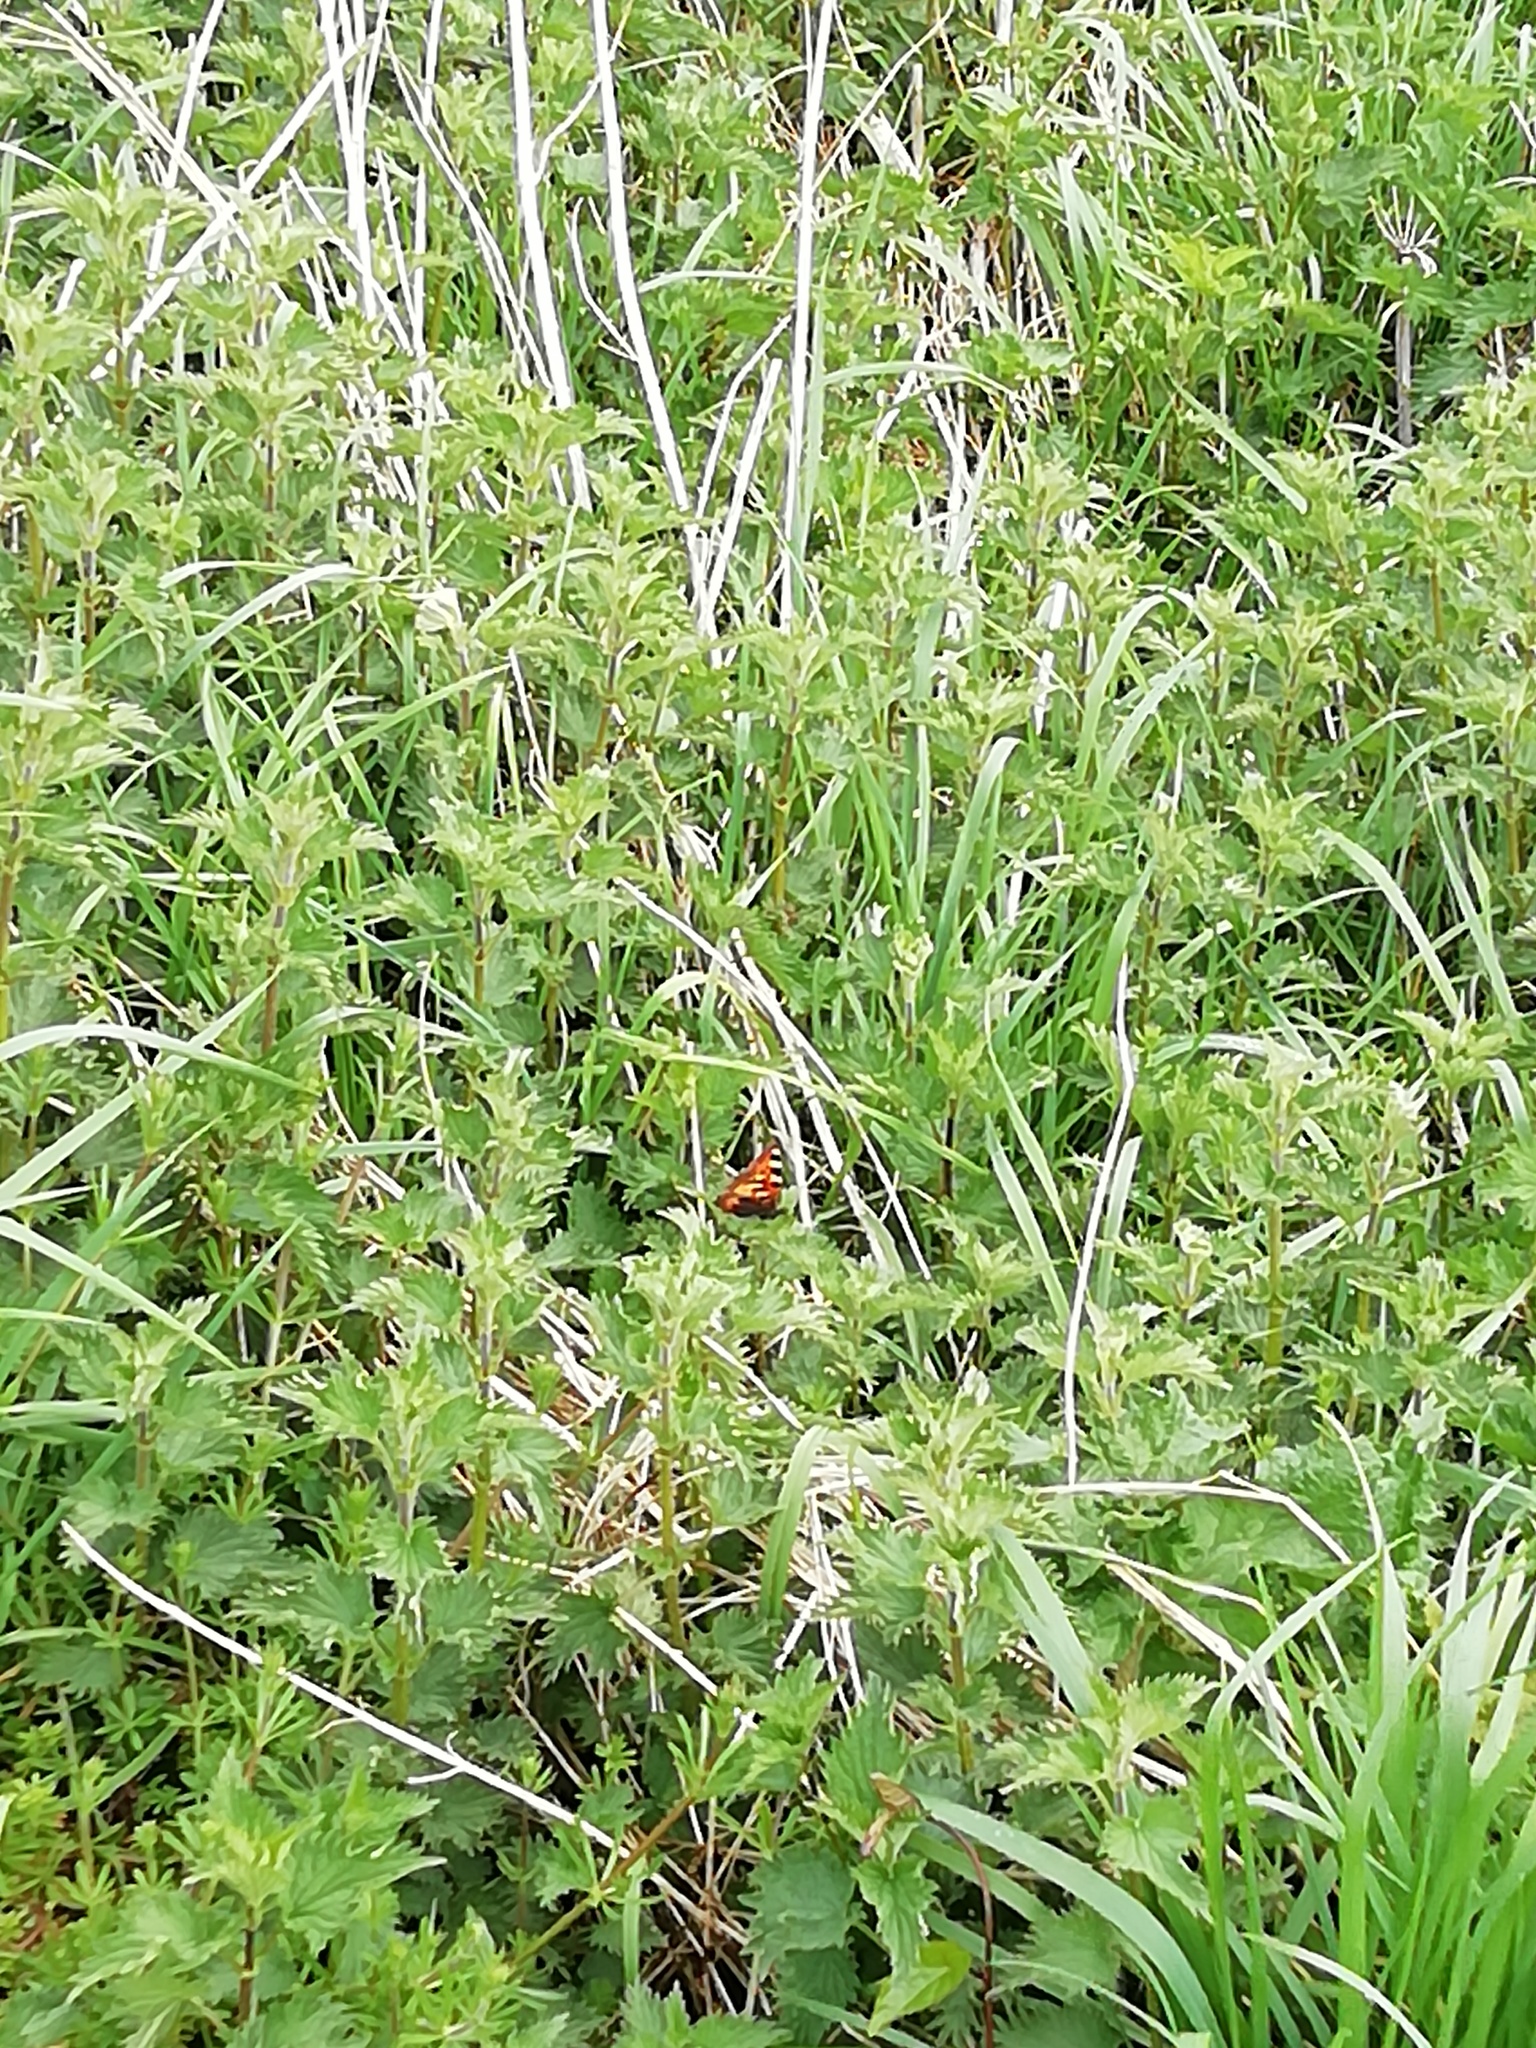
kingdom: Animalia
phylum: Arthropoda
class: Insecta
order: Lepidoptera
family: Nymphalidae
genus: Aglais
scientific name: Aglais urticae
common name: Small tortoiseshell
